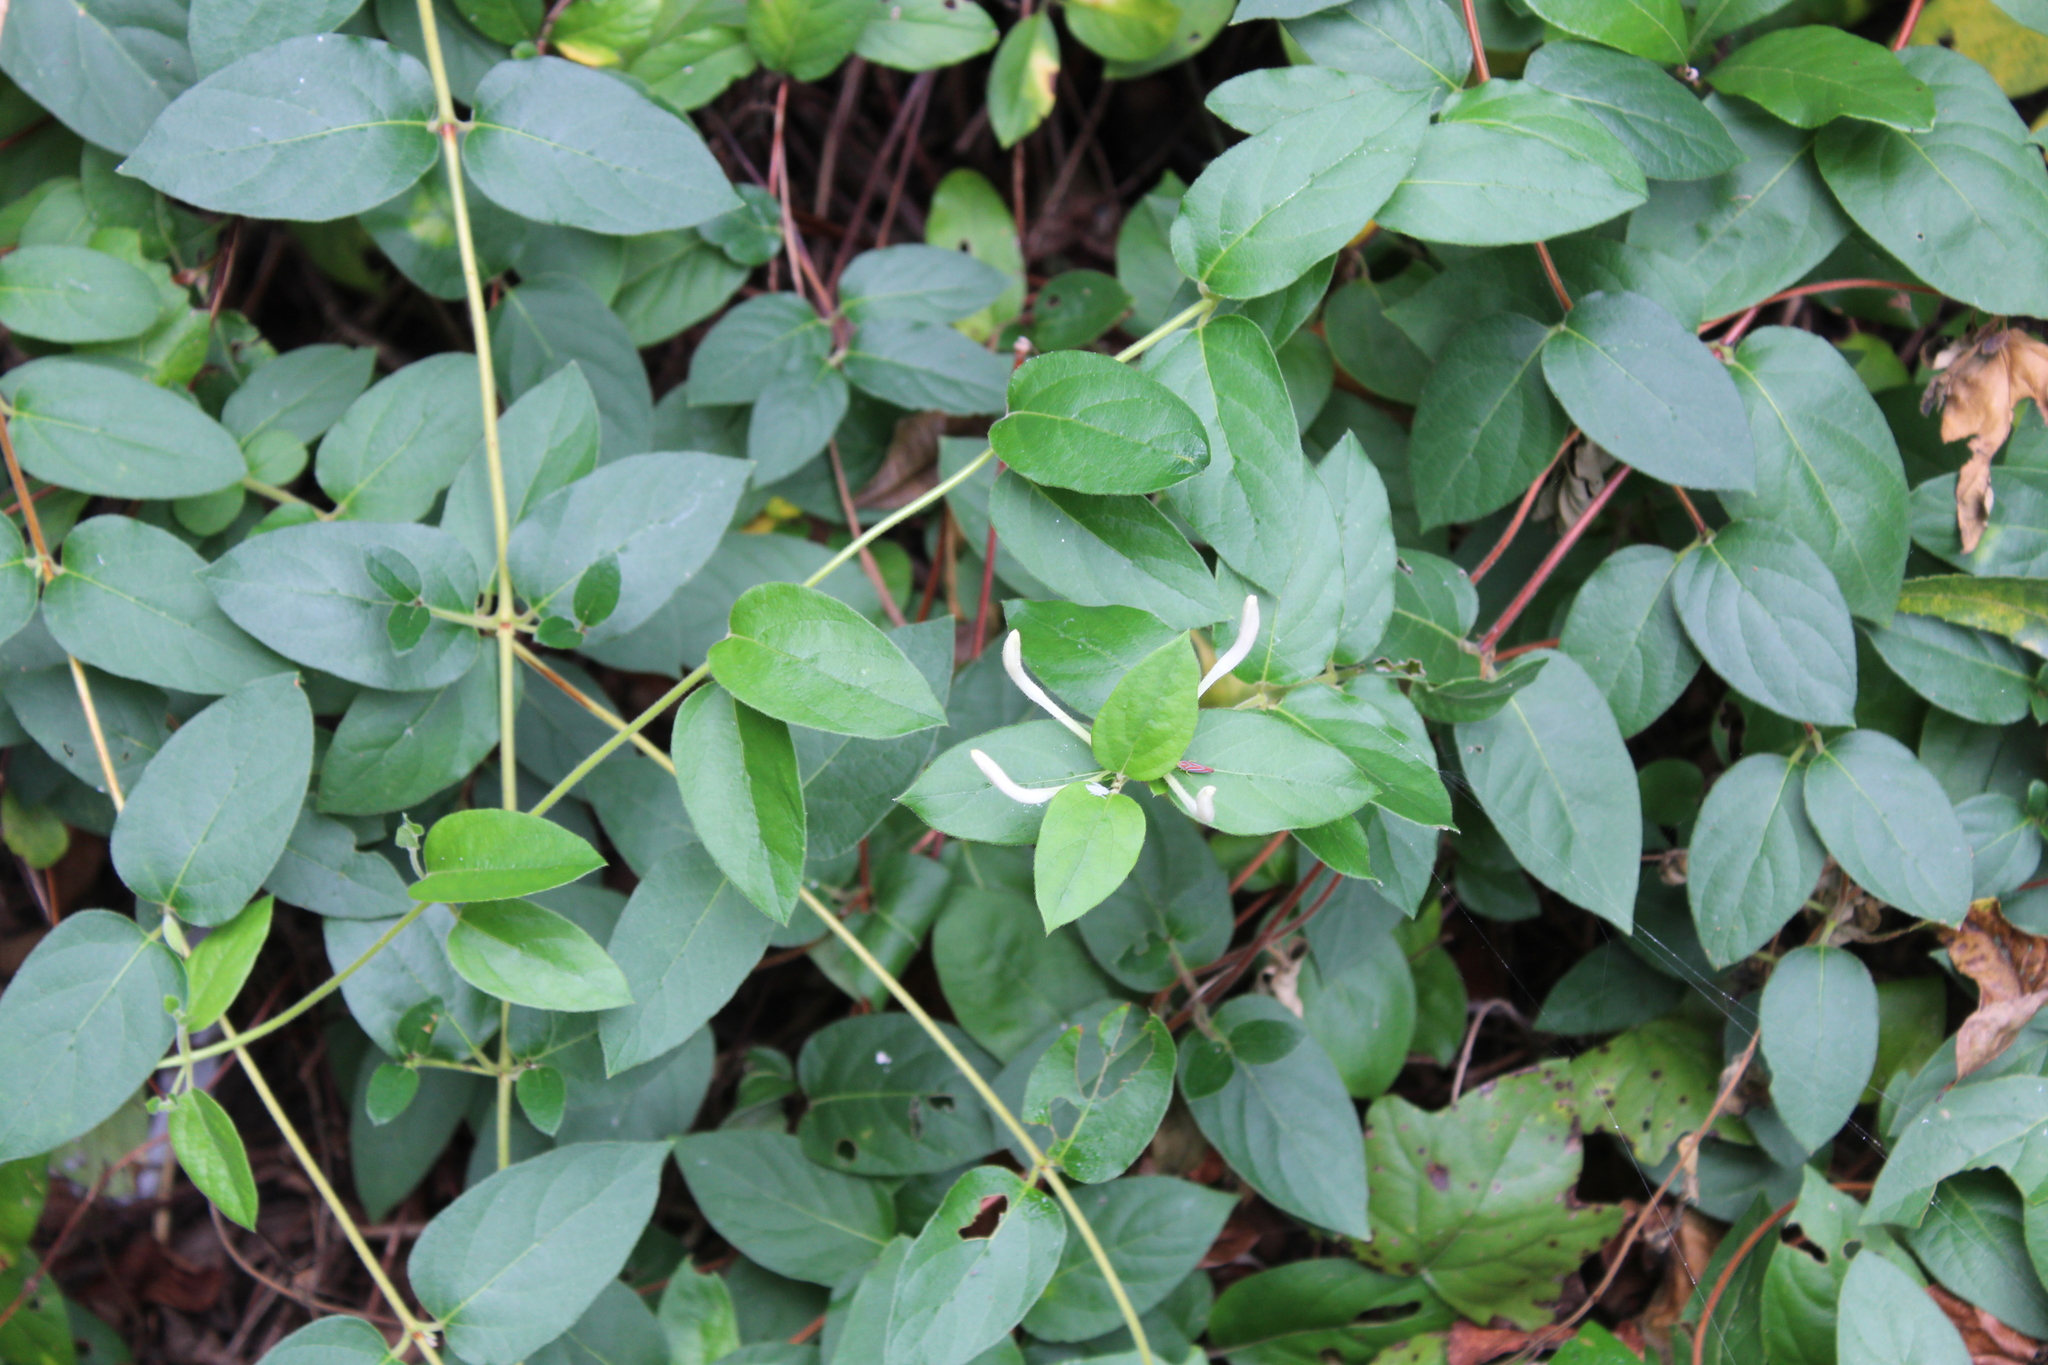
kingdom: Plantae
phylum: Tracheophyta
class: Magnoliopsida
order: Dipsacales
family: Caprifoliaceae
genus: Lonicera
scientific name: Lonicera japonica
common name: Japanese honeysuckle
